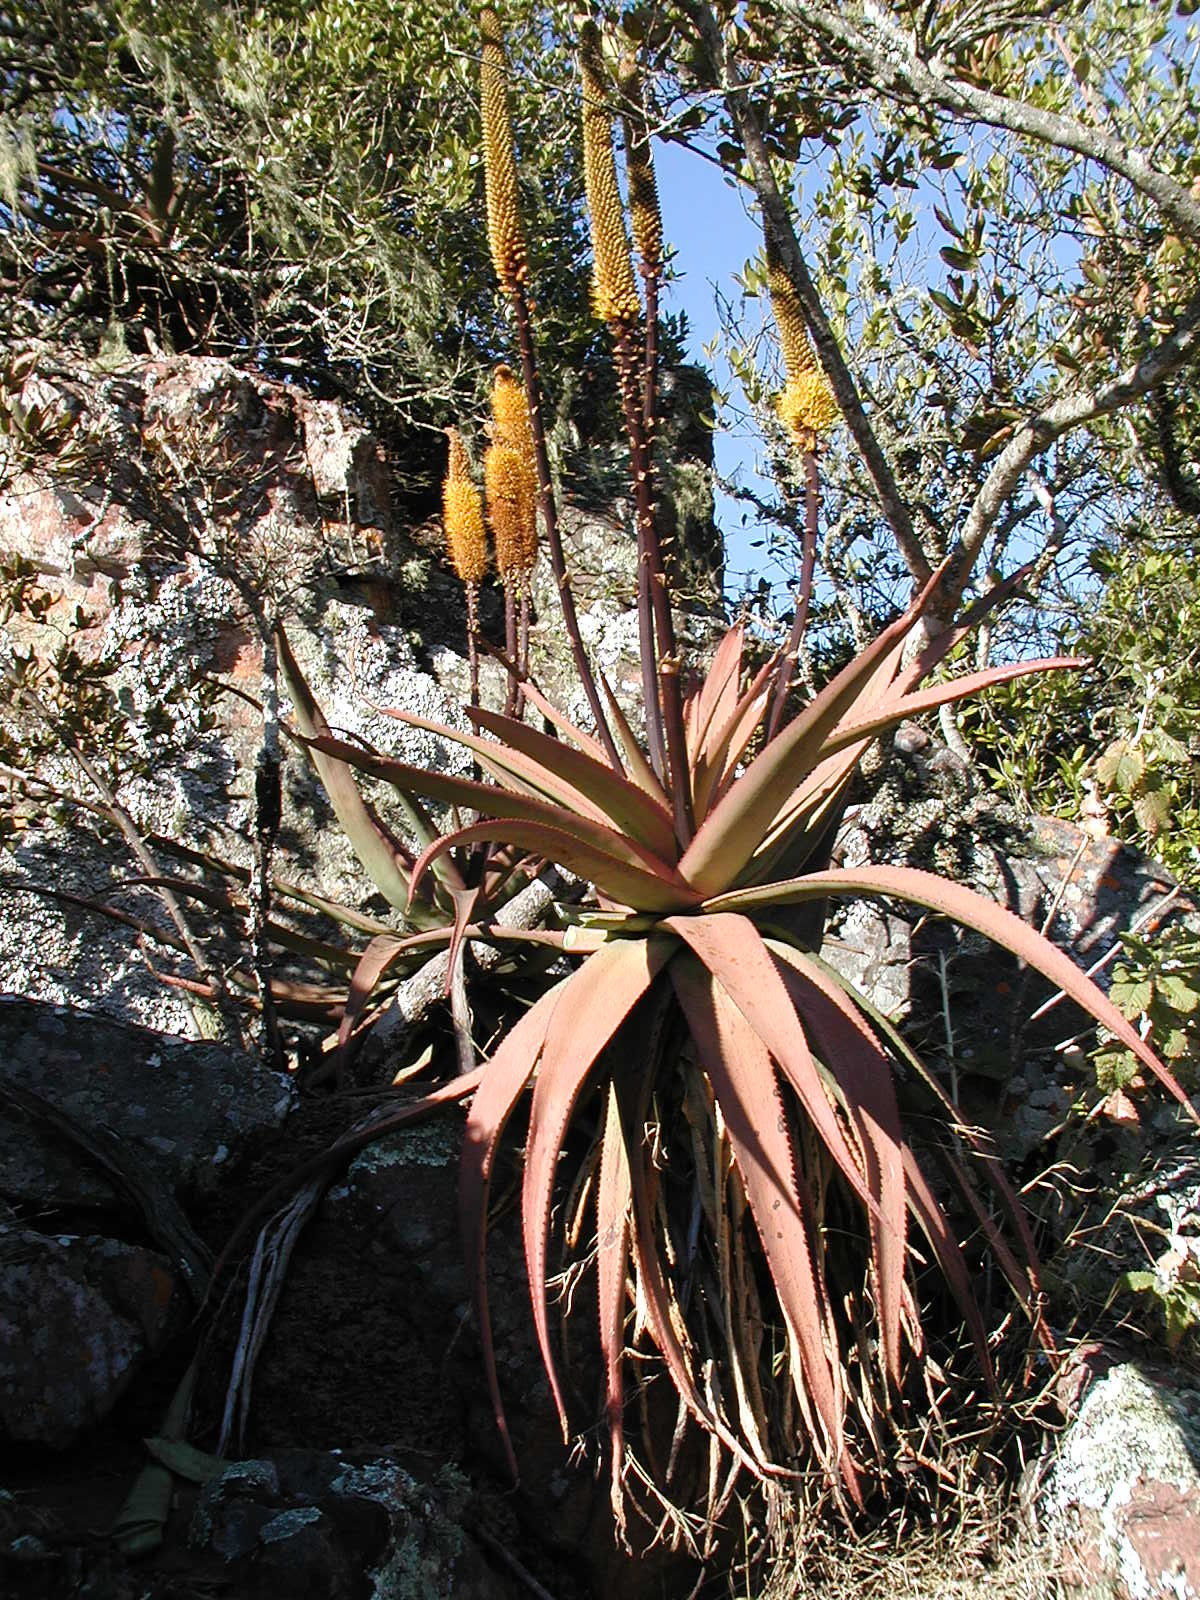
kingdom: Plantae
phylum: Tracheophyta
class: Liliopsida
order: Asparagales
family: Asphodelaceae
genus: Aloe
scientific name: Aloe spicata
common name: Gazaland aloe
